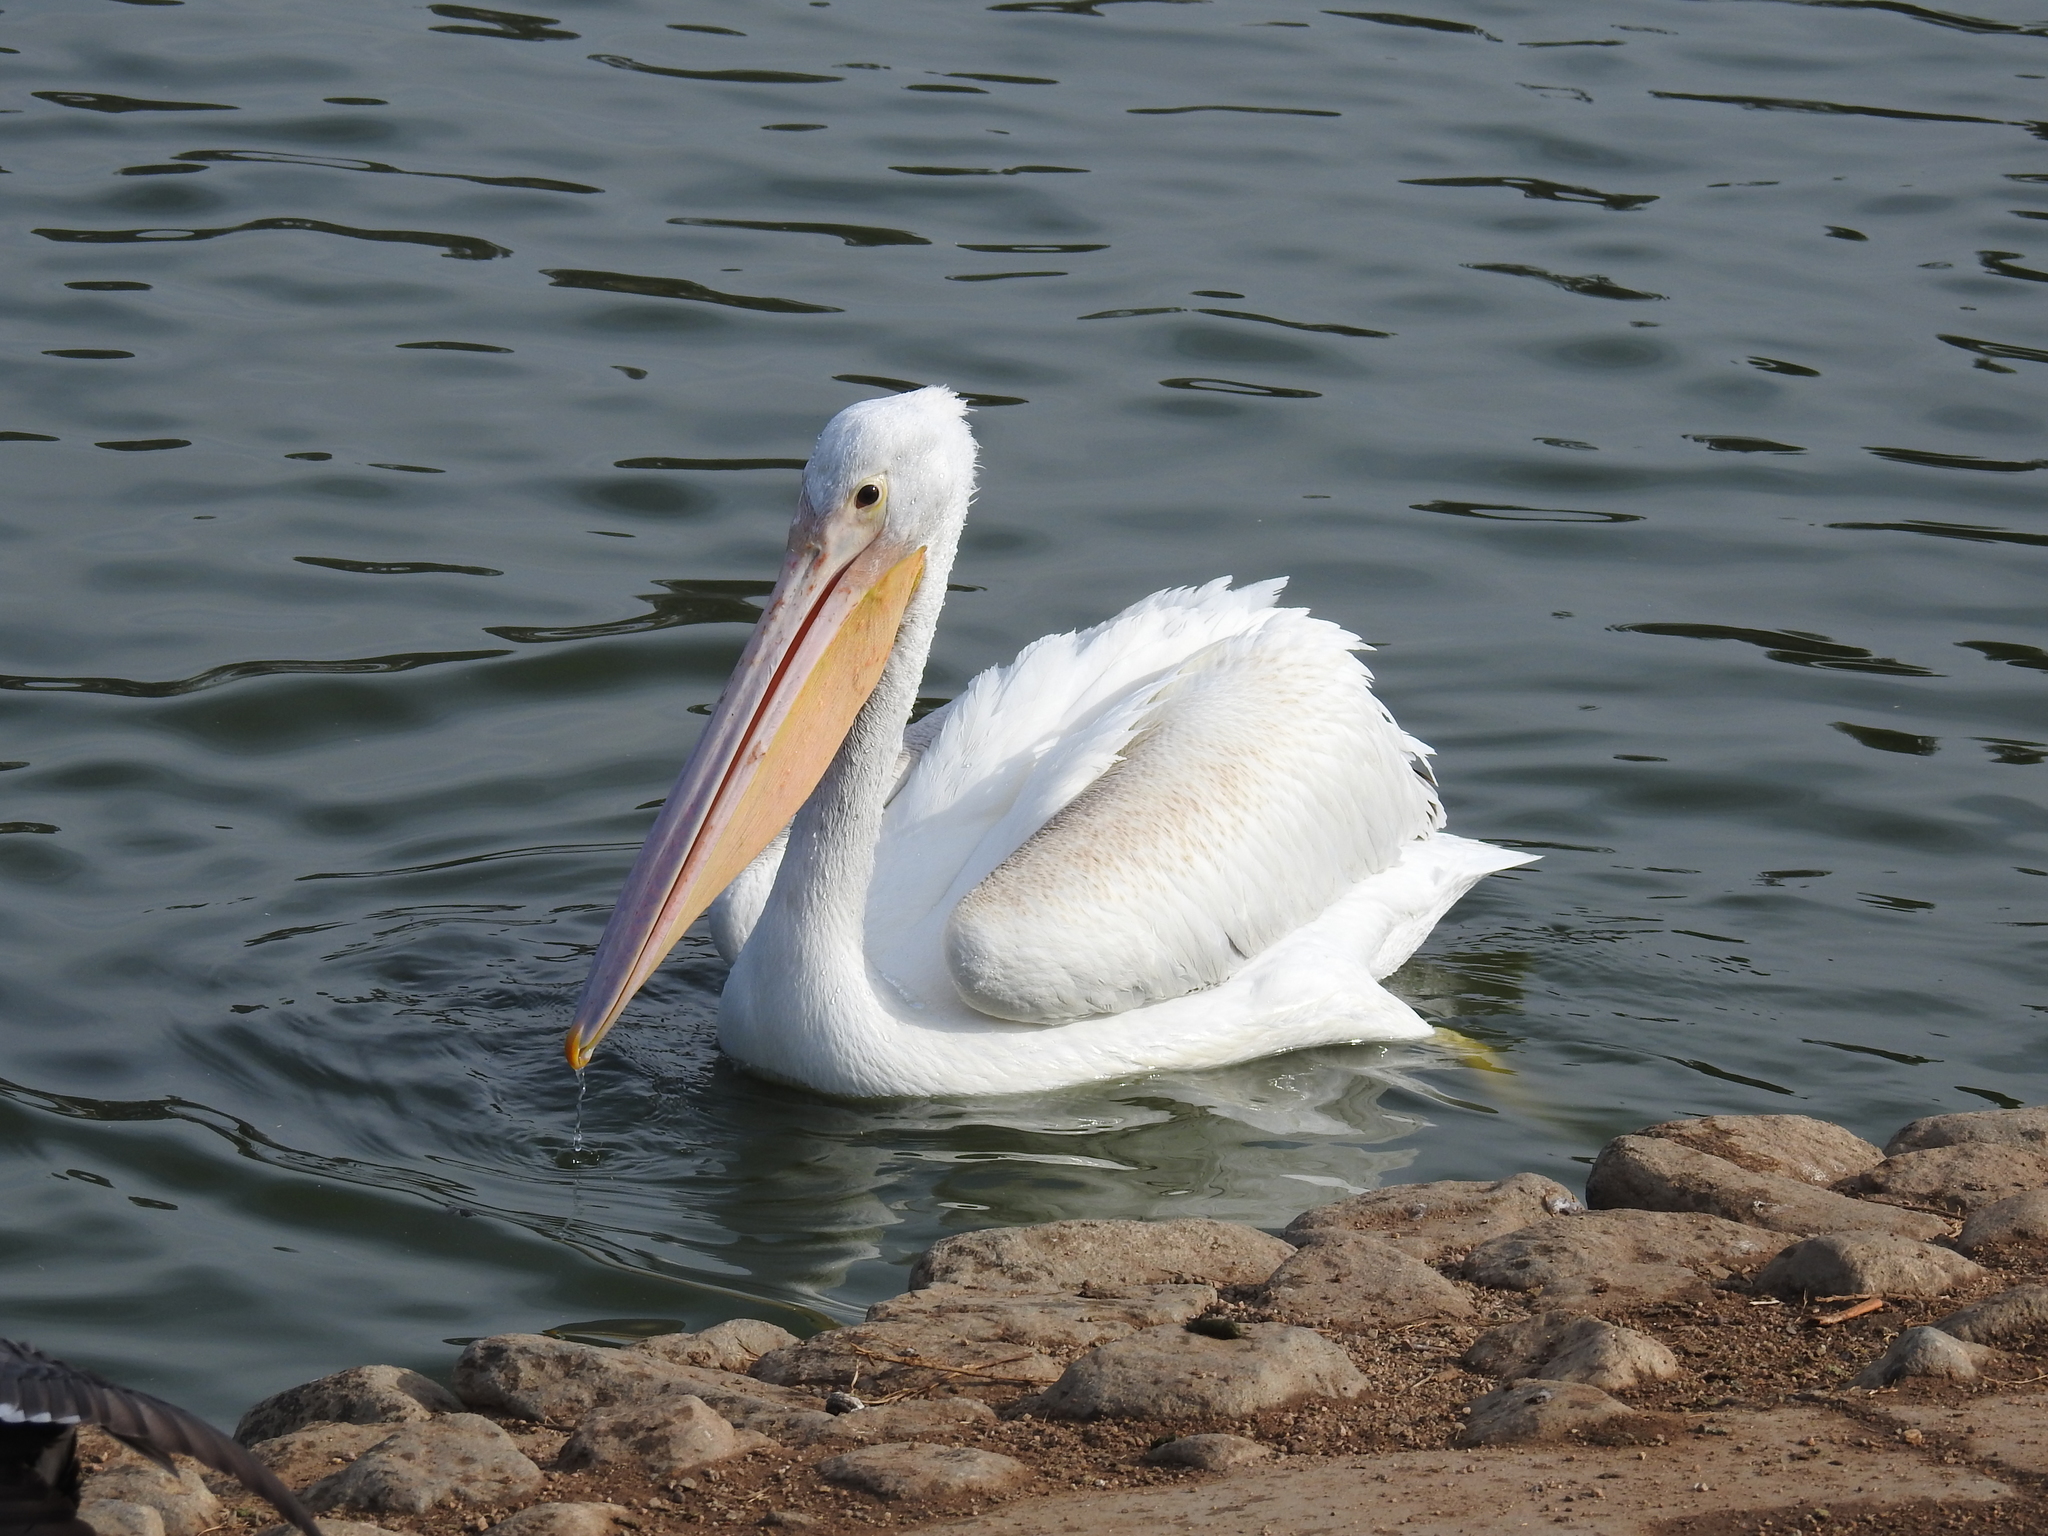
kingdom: Animalia
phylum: Chordata
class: Aves
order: Pelecaniformes
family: Pelecanidae
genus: Pelecanus
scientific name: Pelecanus erythrorhynchos
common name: American white pelican
